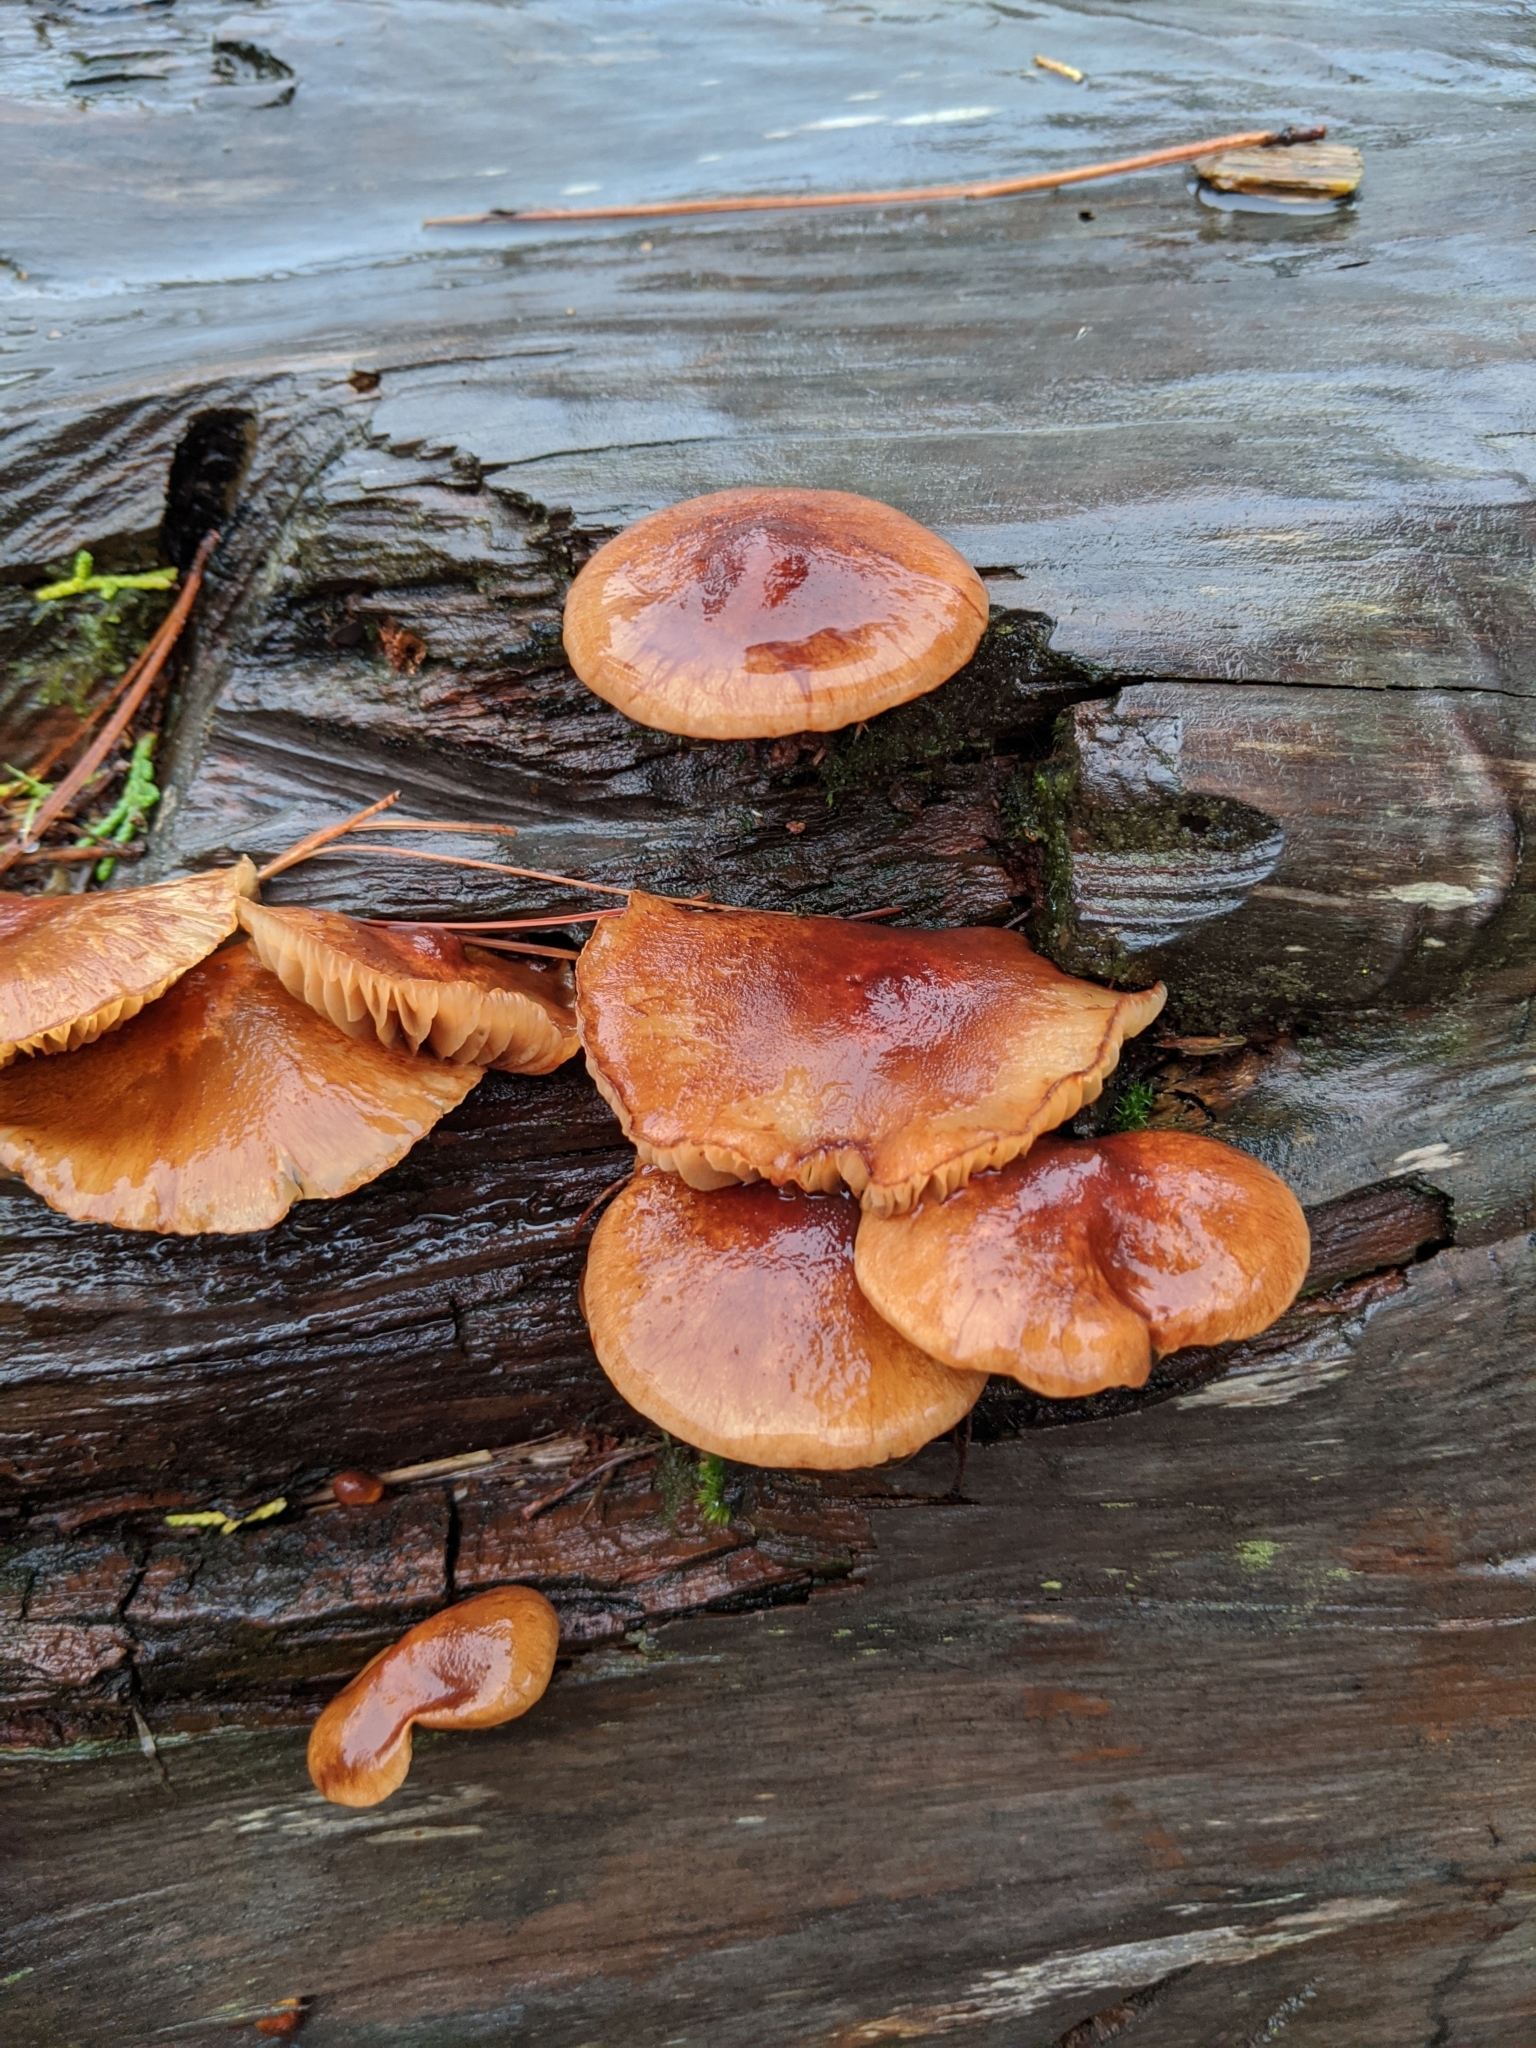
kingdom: Fungi
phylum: Basidiomycota
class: Agaricomycetes
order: Agaricales
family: Hymenogastraceae
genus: Gymnopilus
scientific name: Gymnopilus junonius
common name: Spectacular rustgill
